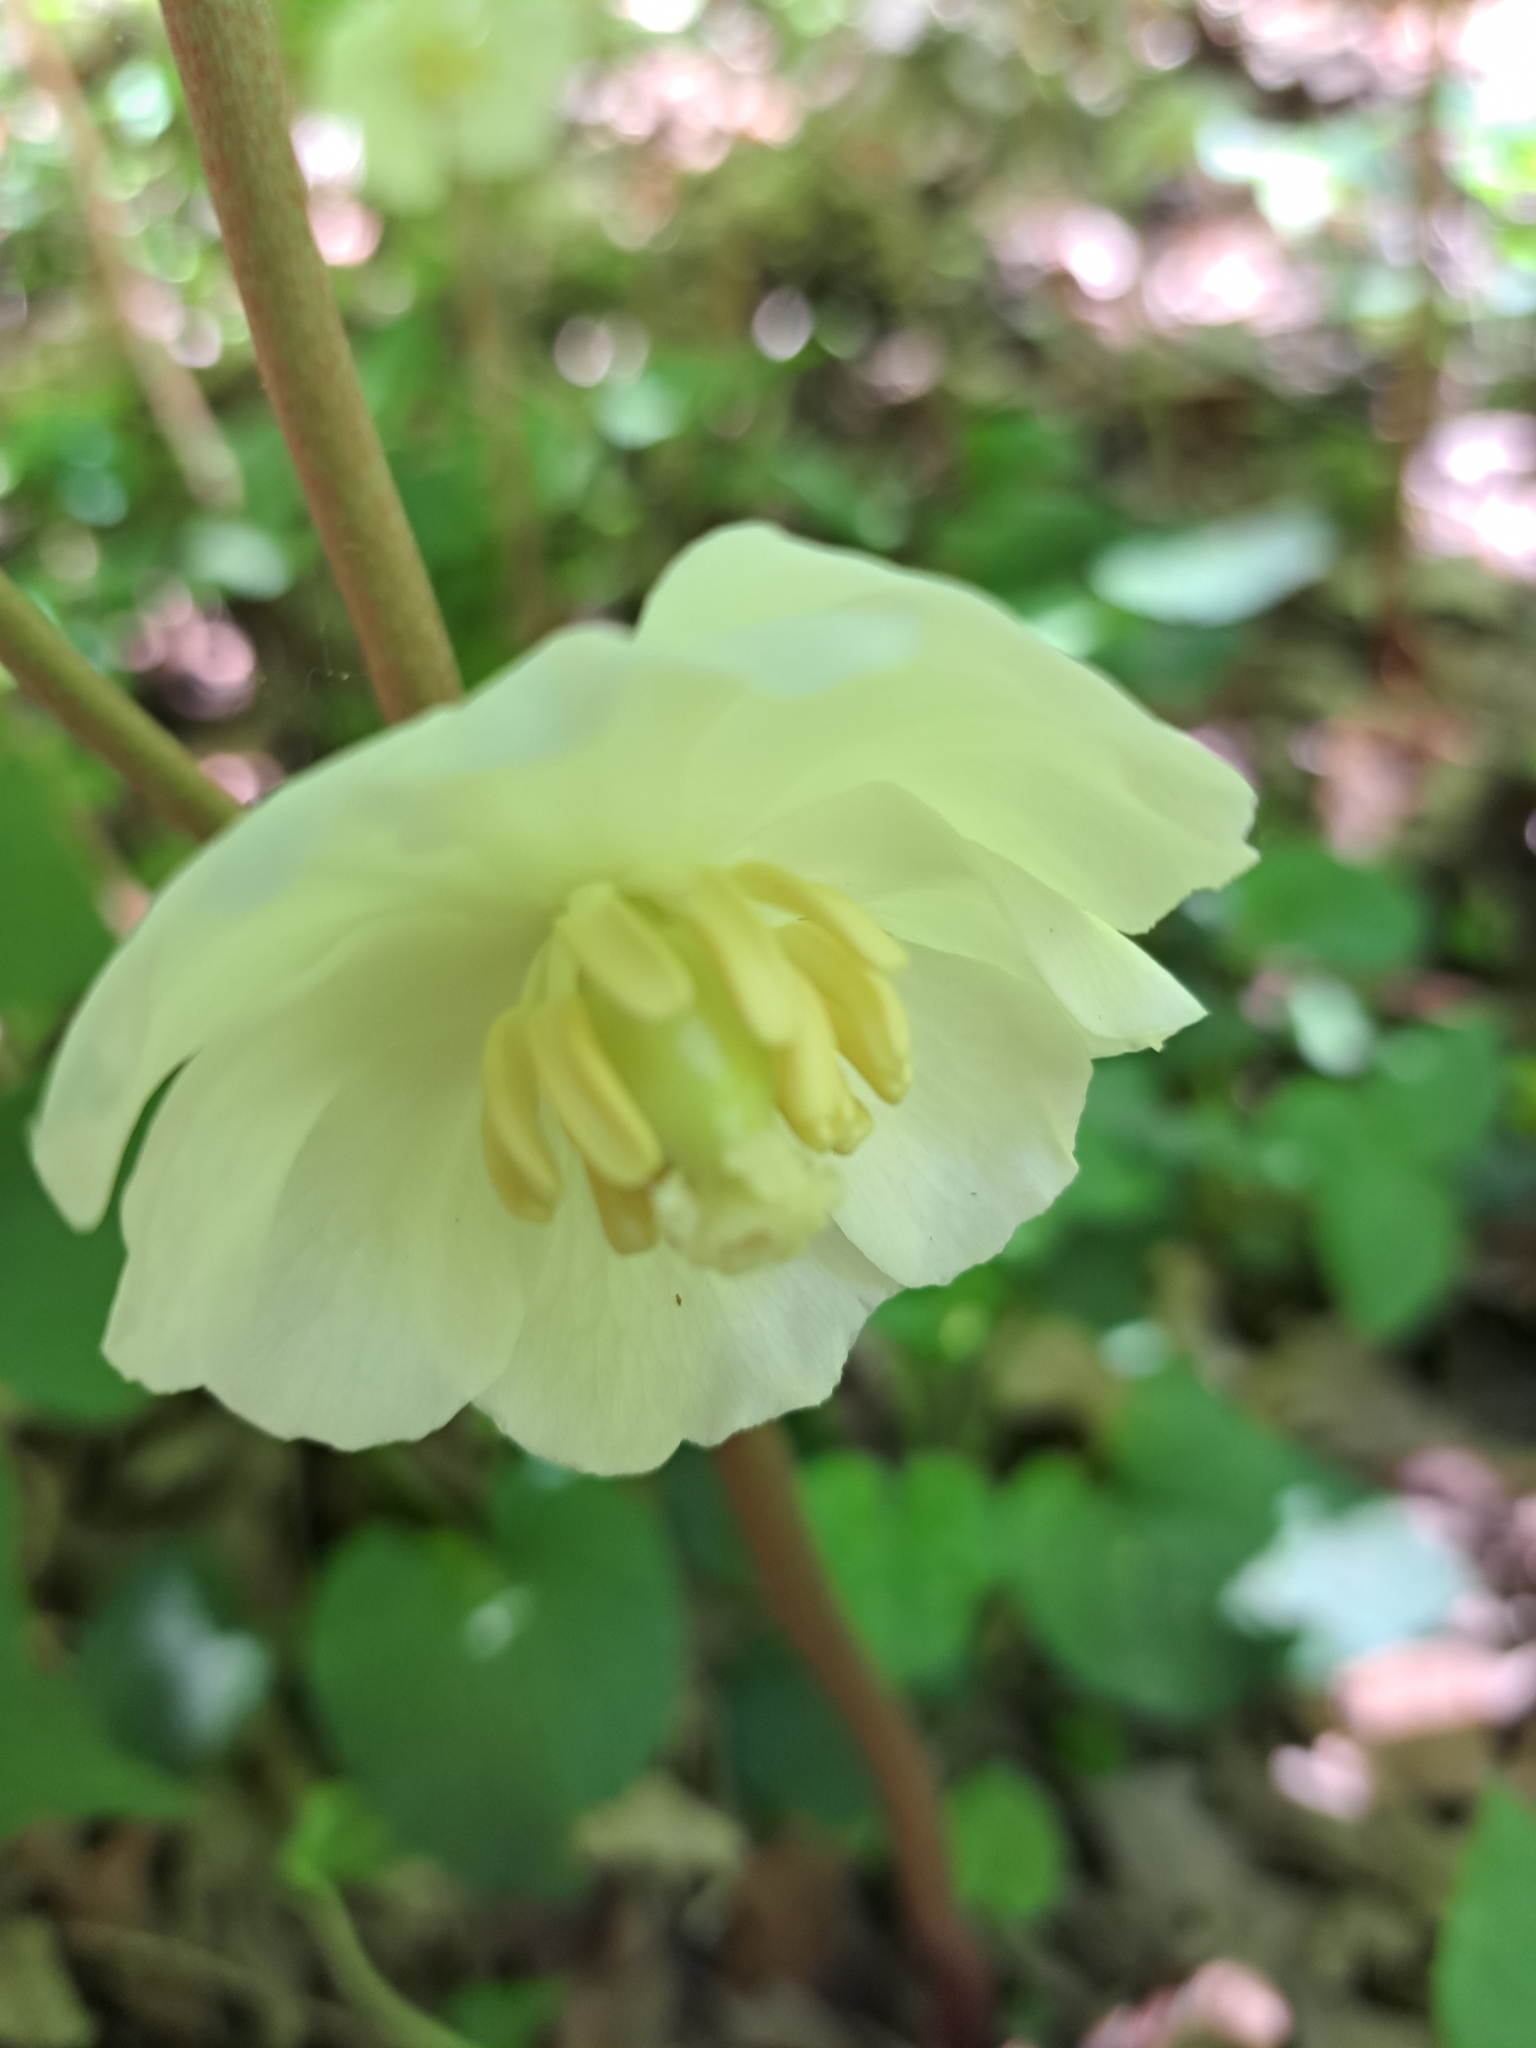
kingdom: Plantae
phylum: Tracheophyta
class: Magnoliopsida
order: Ranunculales
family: Berberidaceae
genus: Podophyllum
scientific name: Podophyllum peltatum
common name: Wild mandrake
